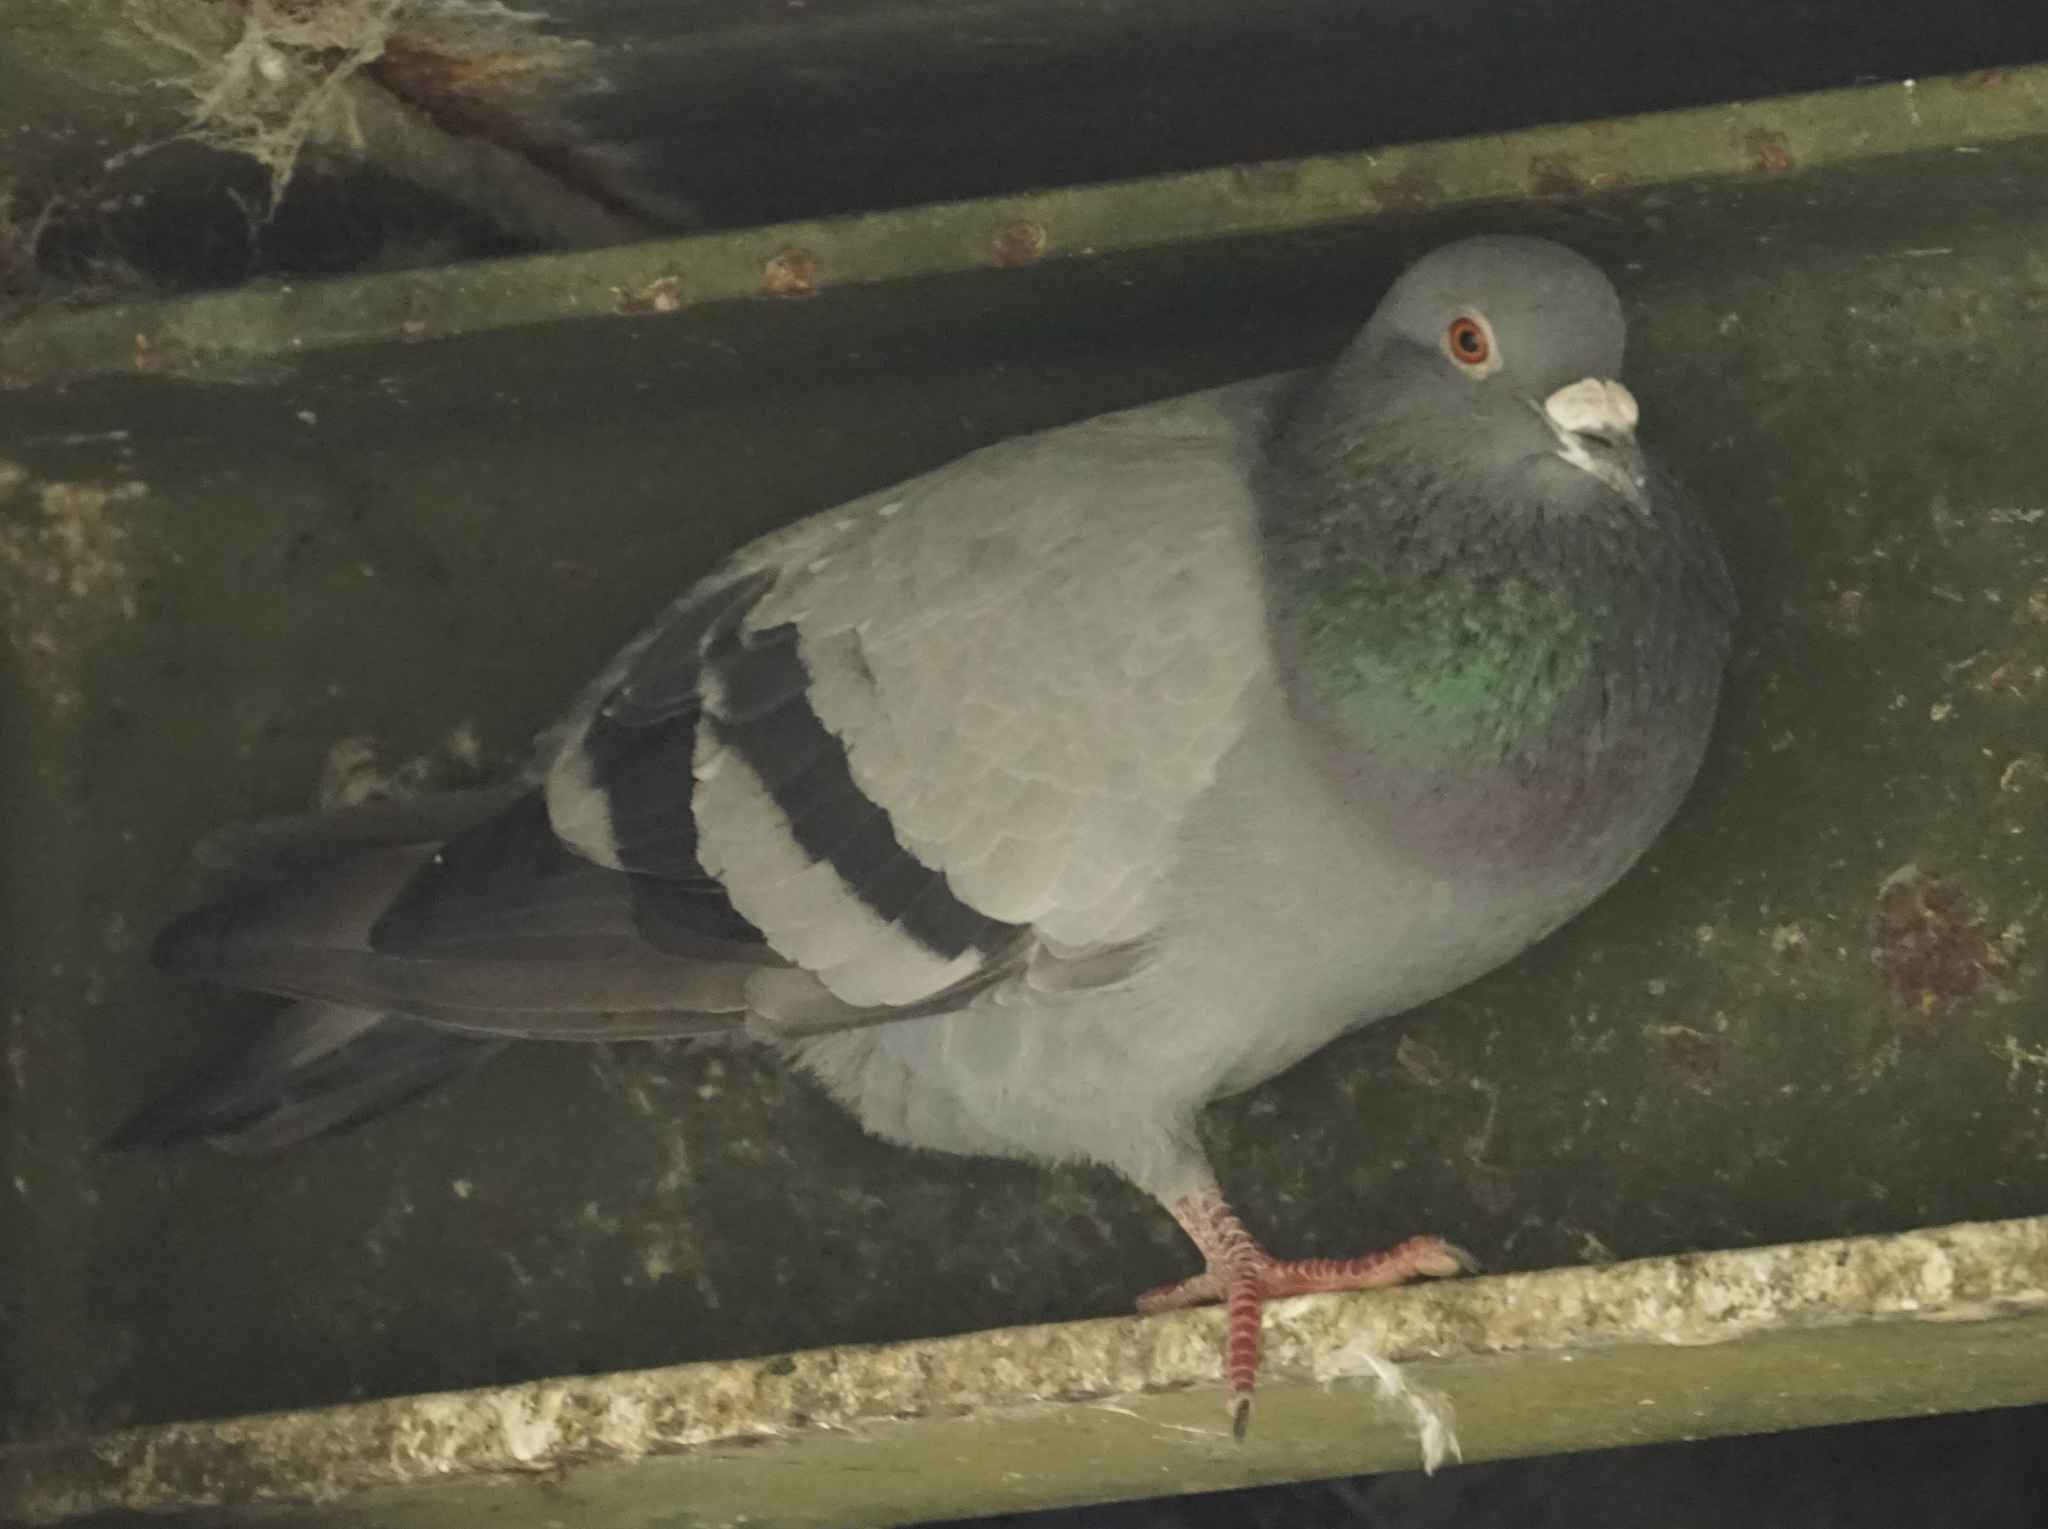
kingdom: Animalia
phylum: Chordata
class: Aves
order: Columbiformes
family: Columbidae
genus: Columba
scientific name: Columba livia
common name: Rock pigeon
